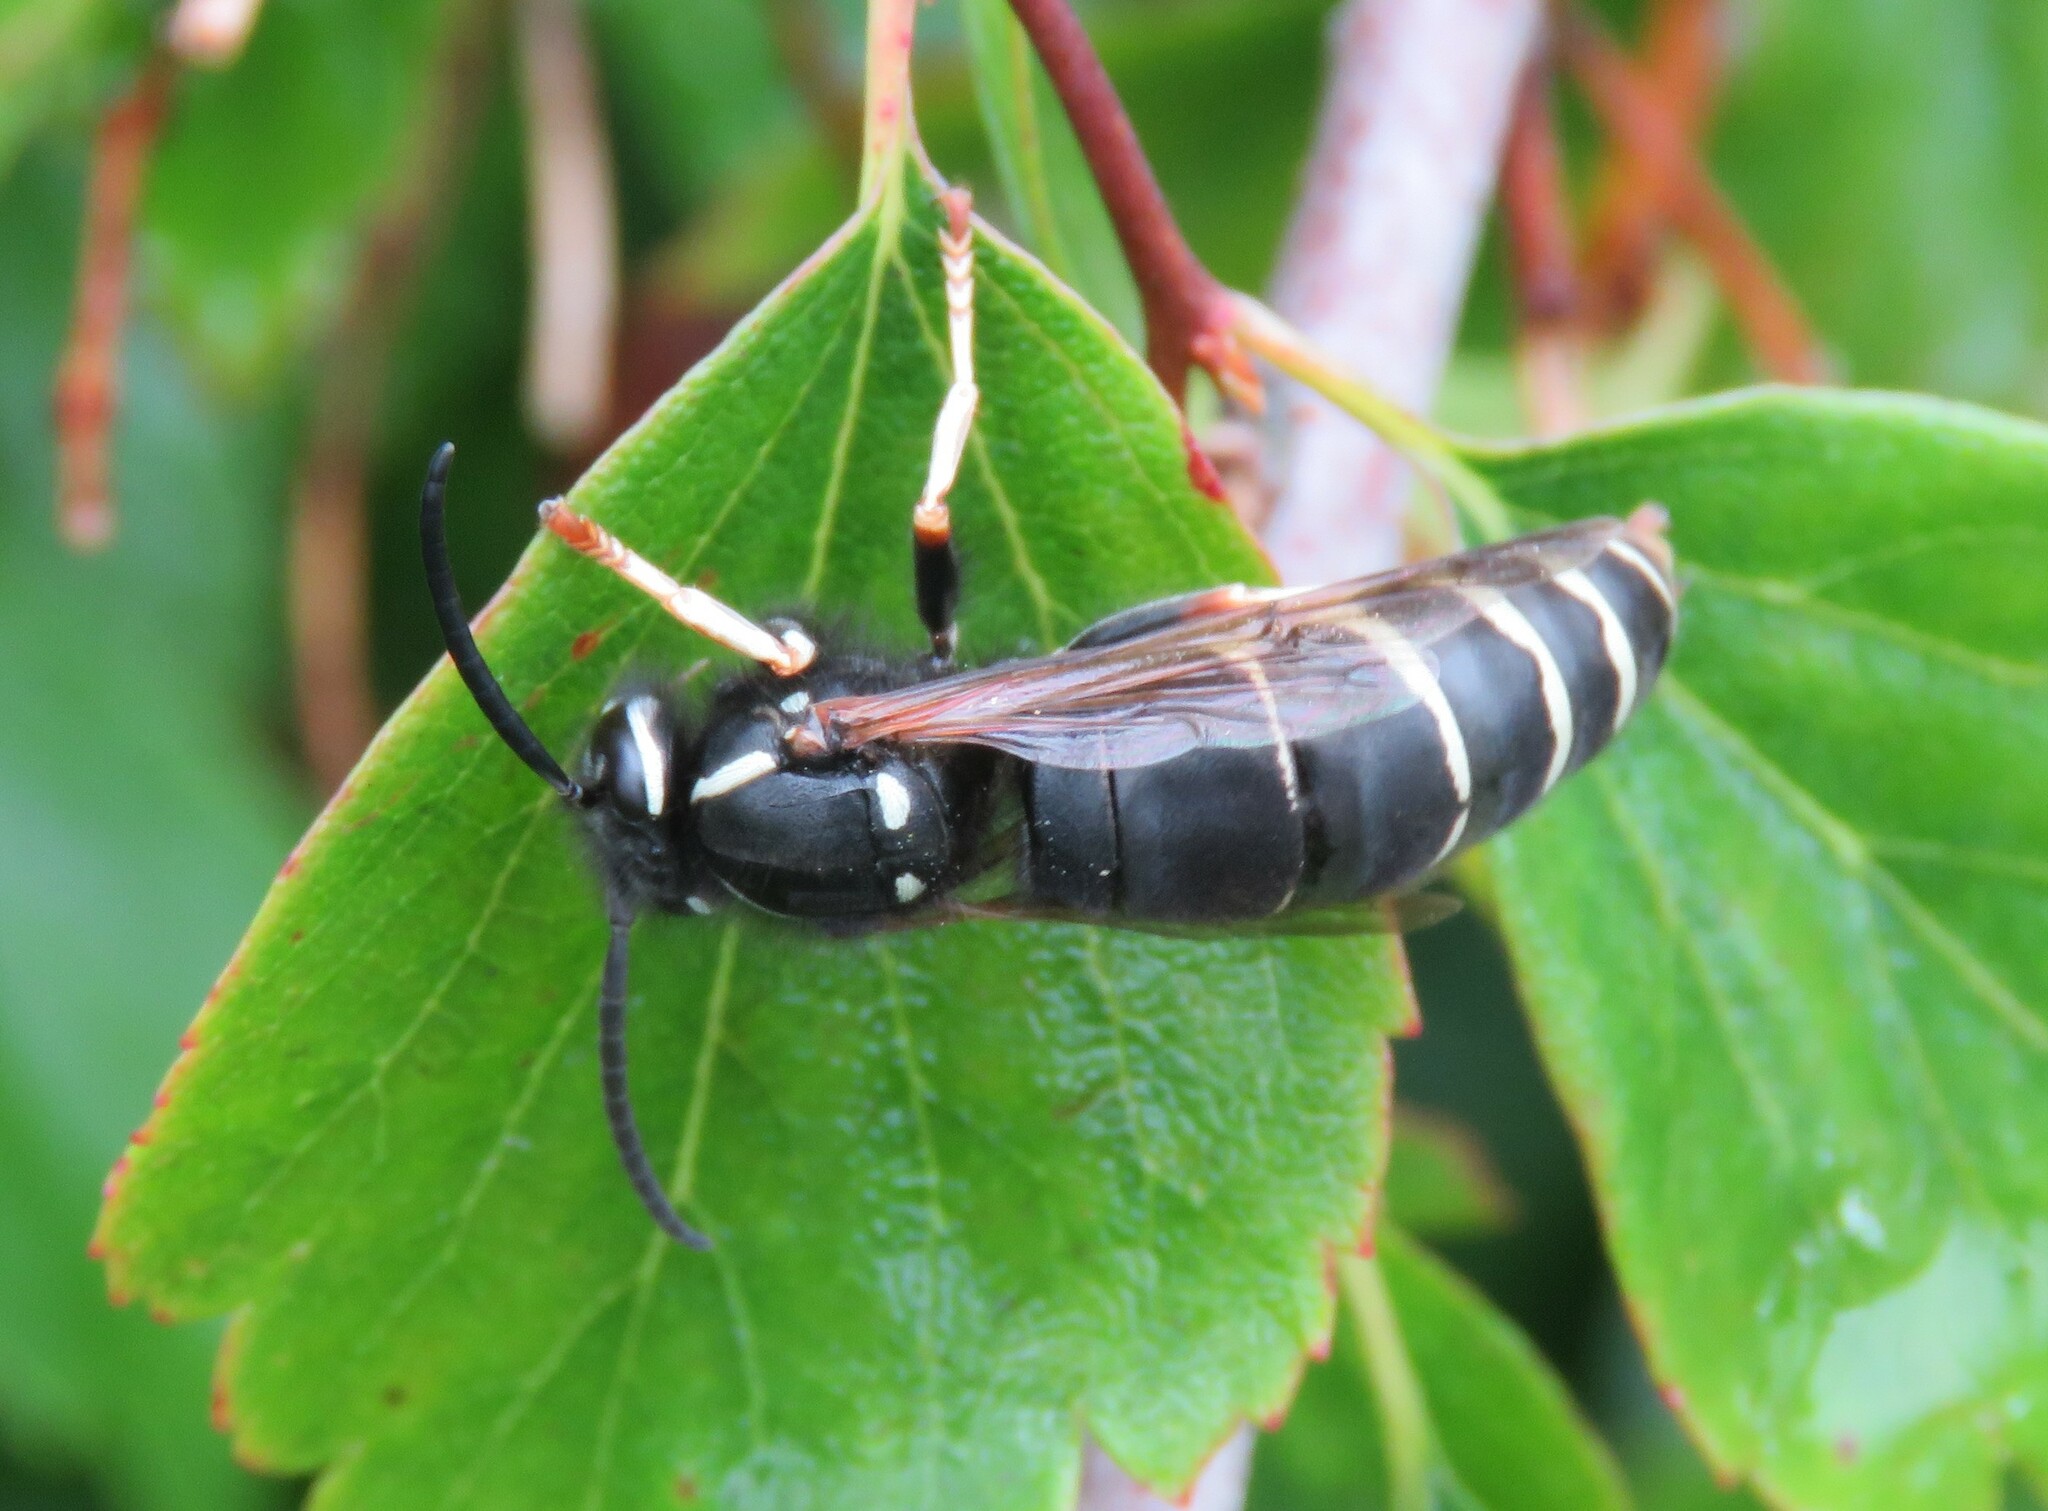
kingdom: Animalia
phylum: Arthropoda
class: Insecta
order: Hymenoptera
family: Vespidae
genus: Vespula
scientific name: Vespula consobrina
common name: Blackjacket
